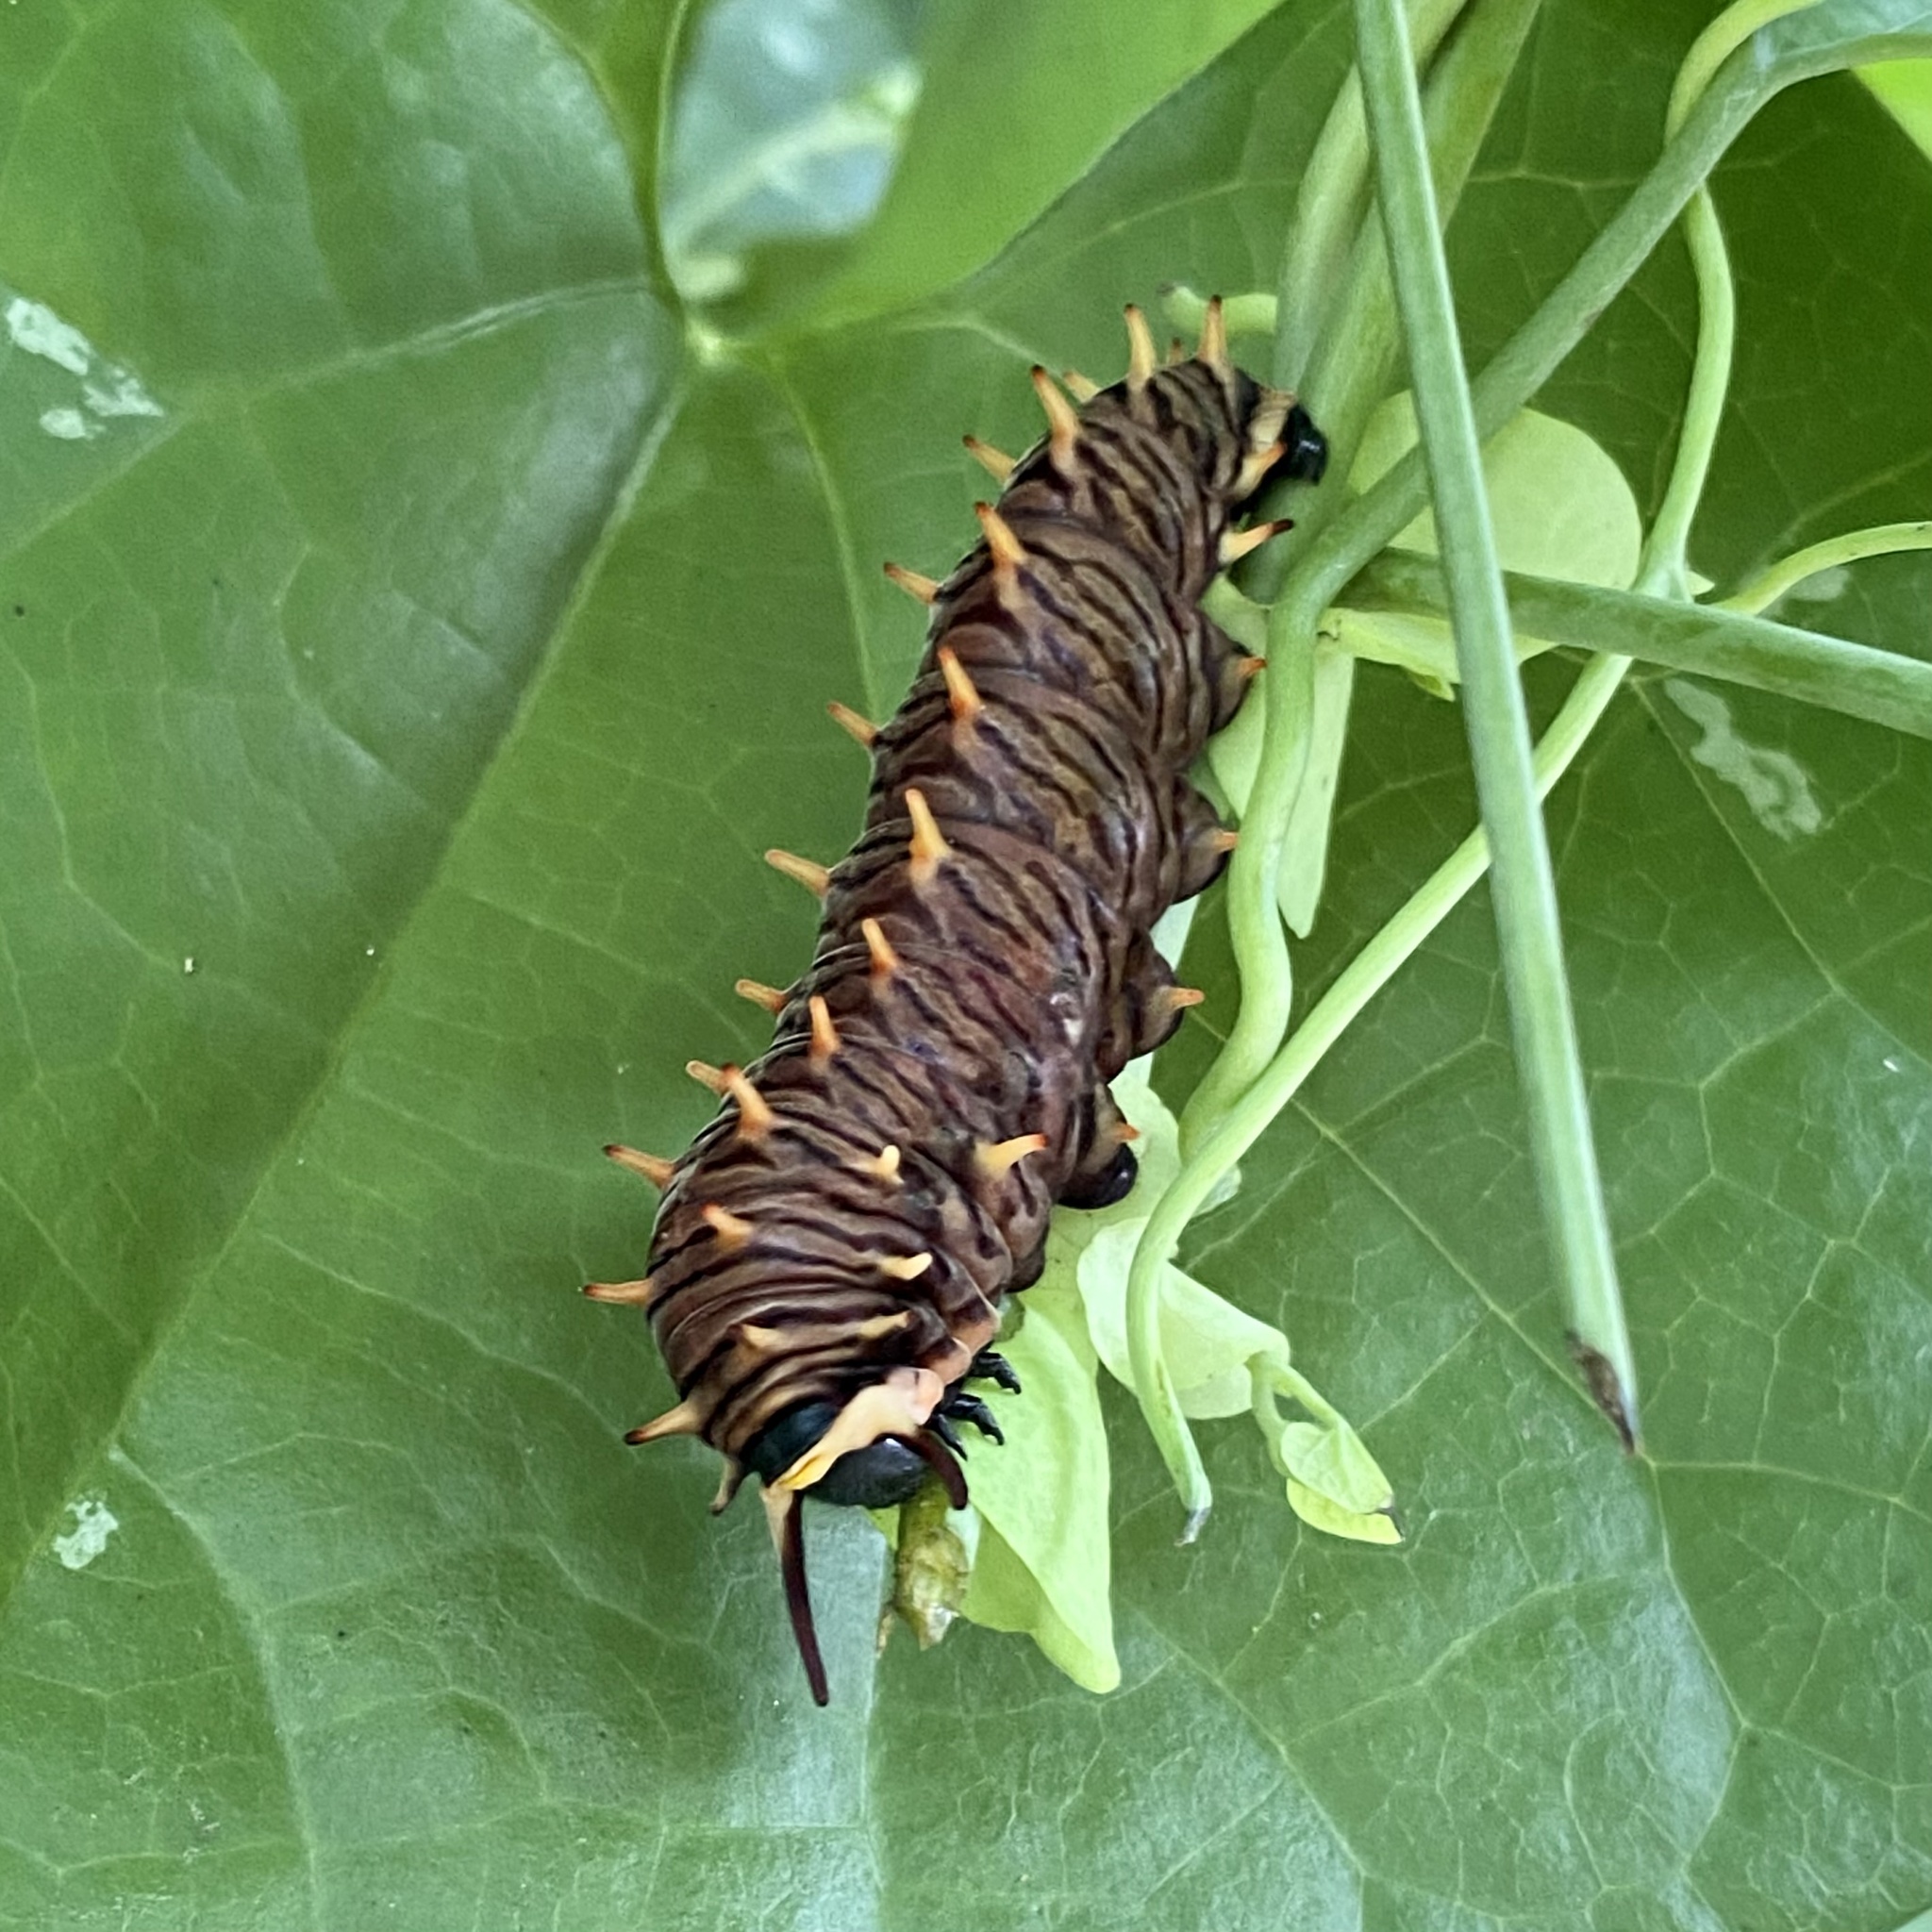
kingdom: Animalia
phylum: Arthropoda
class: Insecta
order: Lepidoptera
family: Papilionidae
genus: Battus
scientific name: Battus polydamas
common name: Polydamas swallowtail
